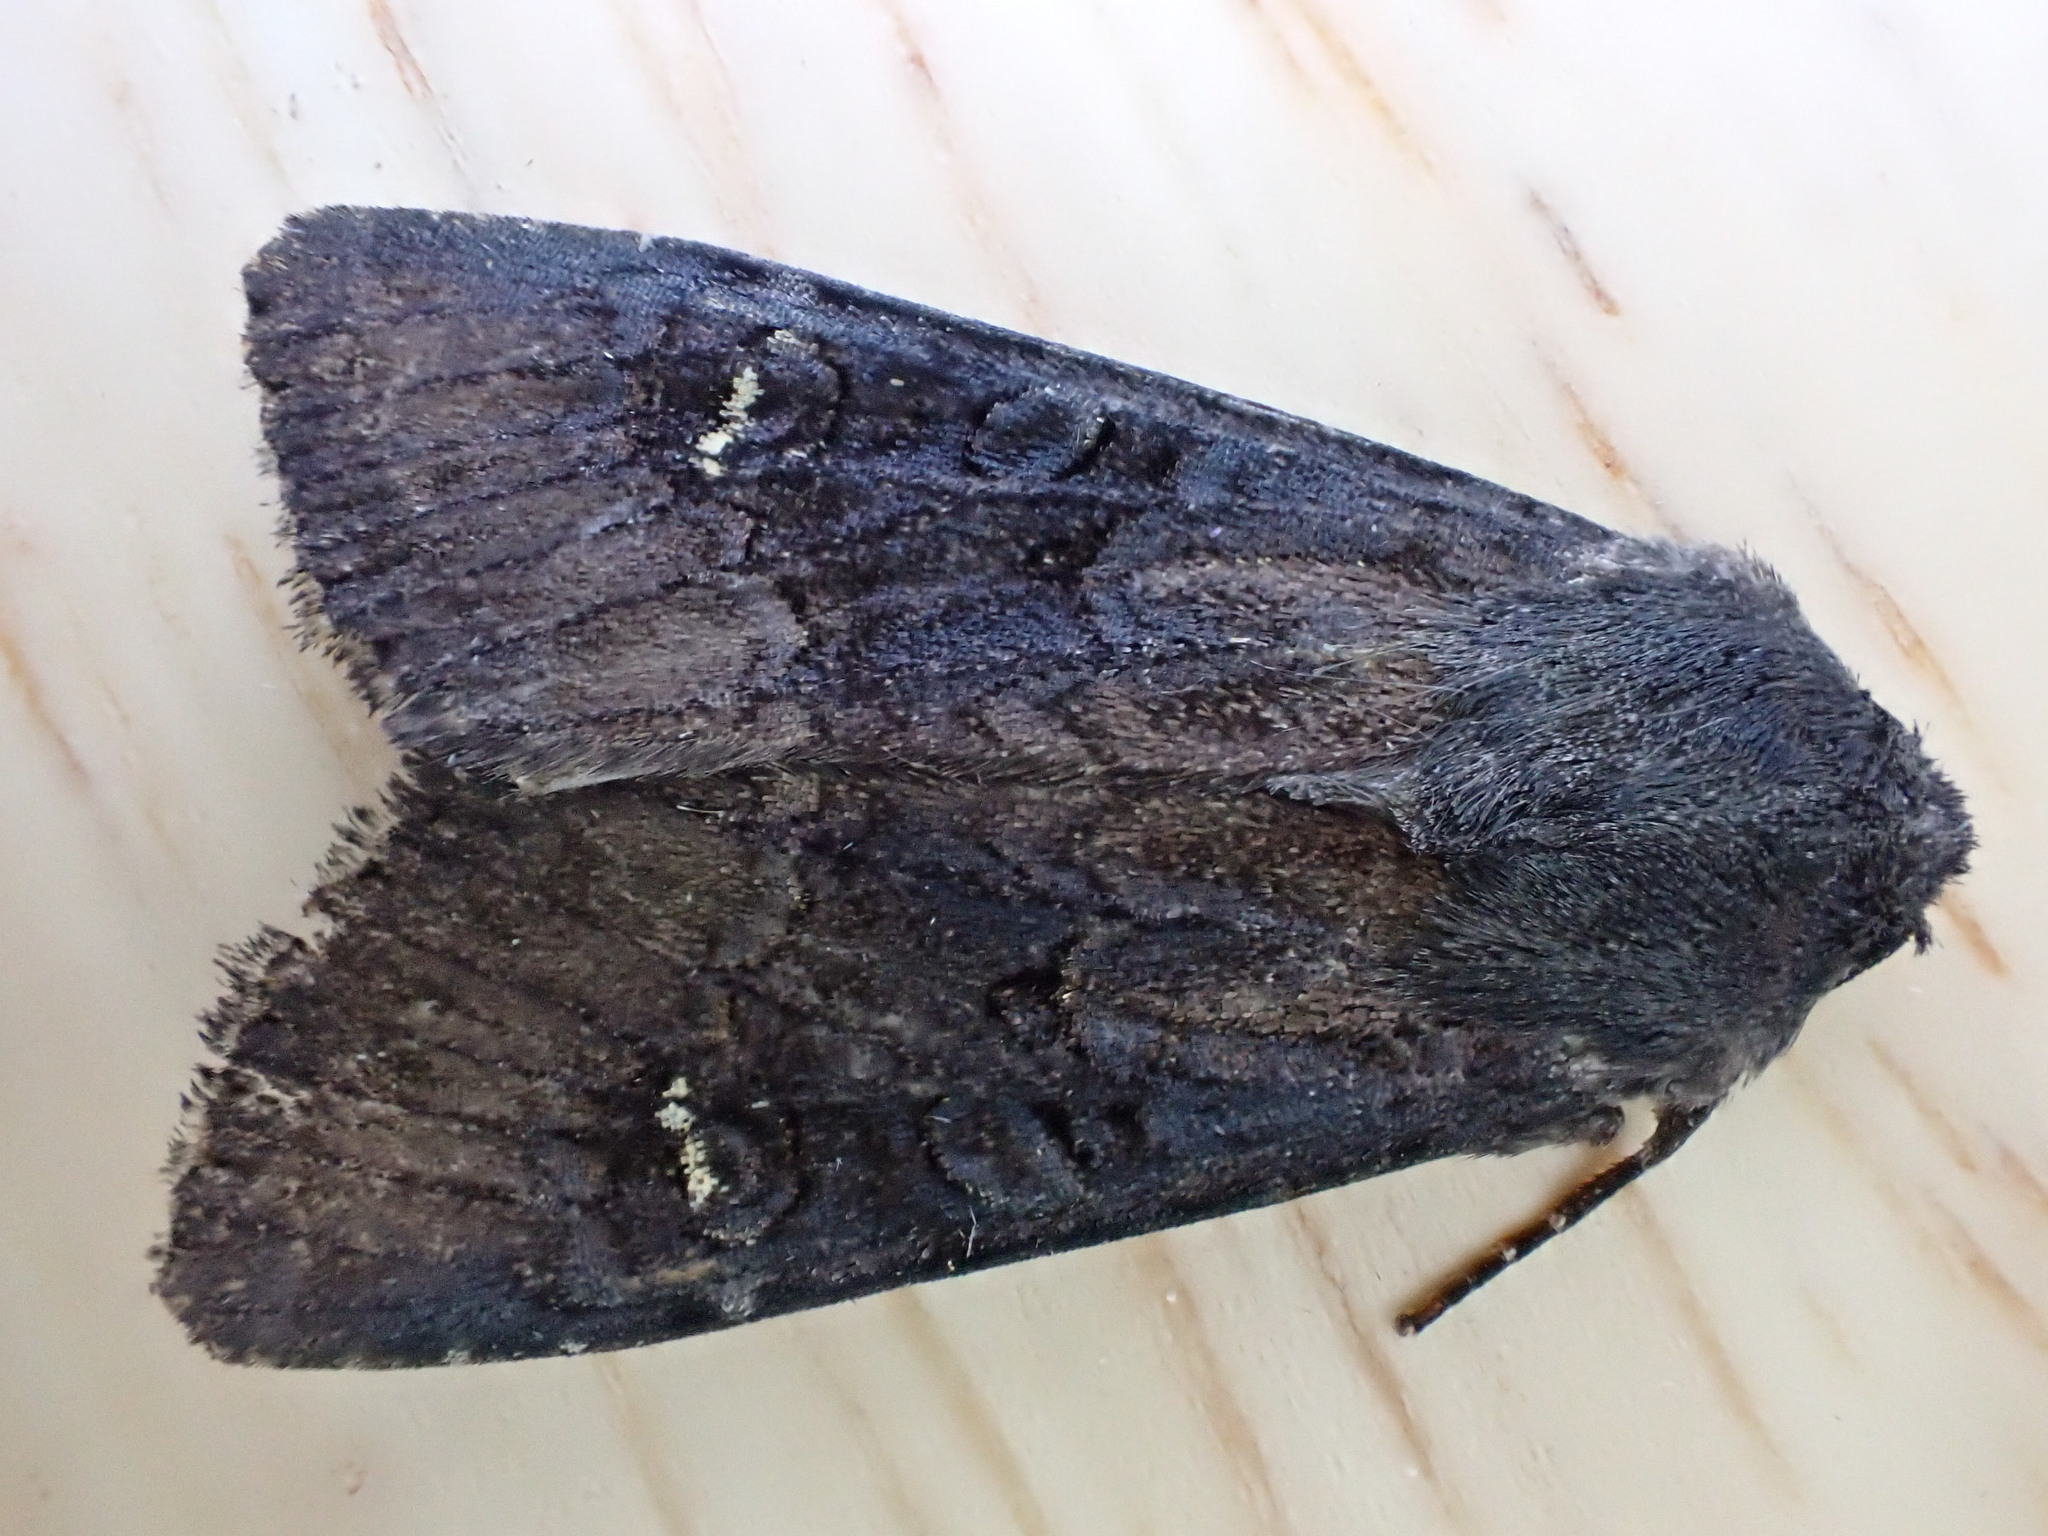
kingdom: Animalia
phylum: Arthropoda
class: Insecta
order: Lepidoptera
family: Noctuidae
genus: Aporophyla
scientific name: Aporophyla nigra
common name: Black rustic
